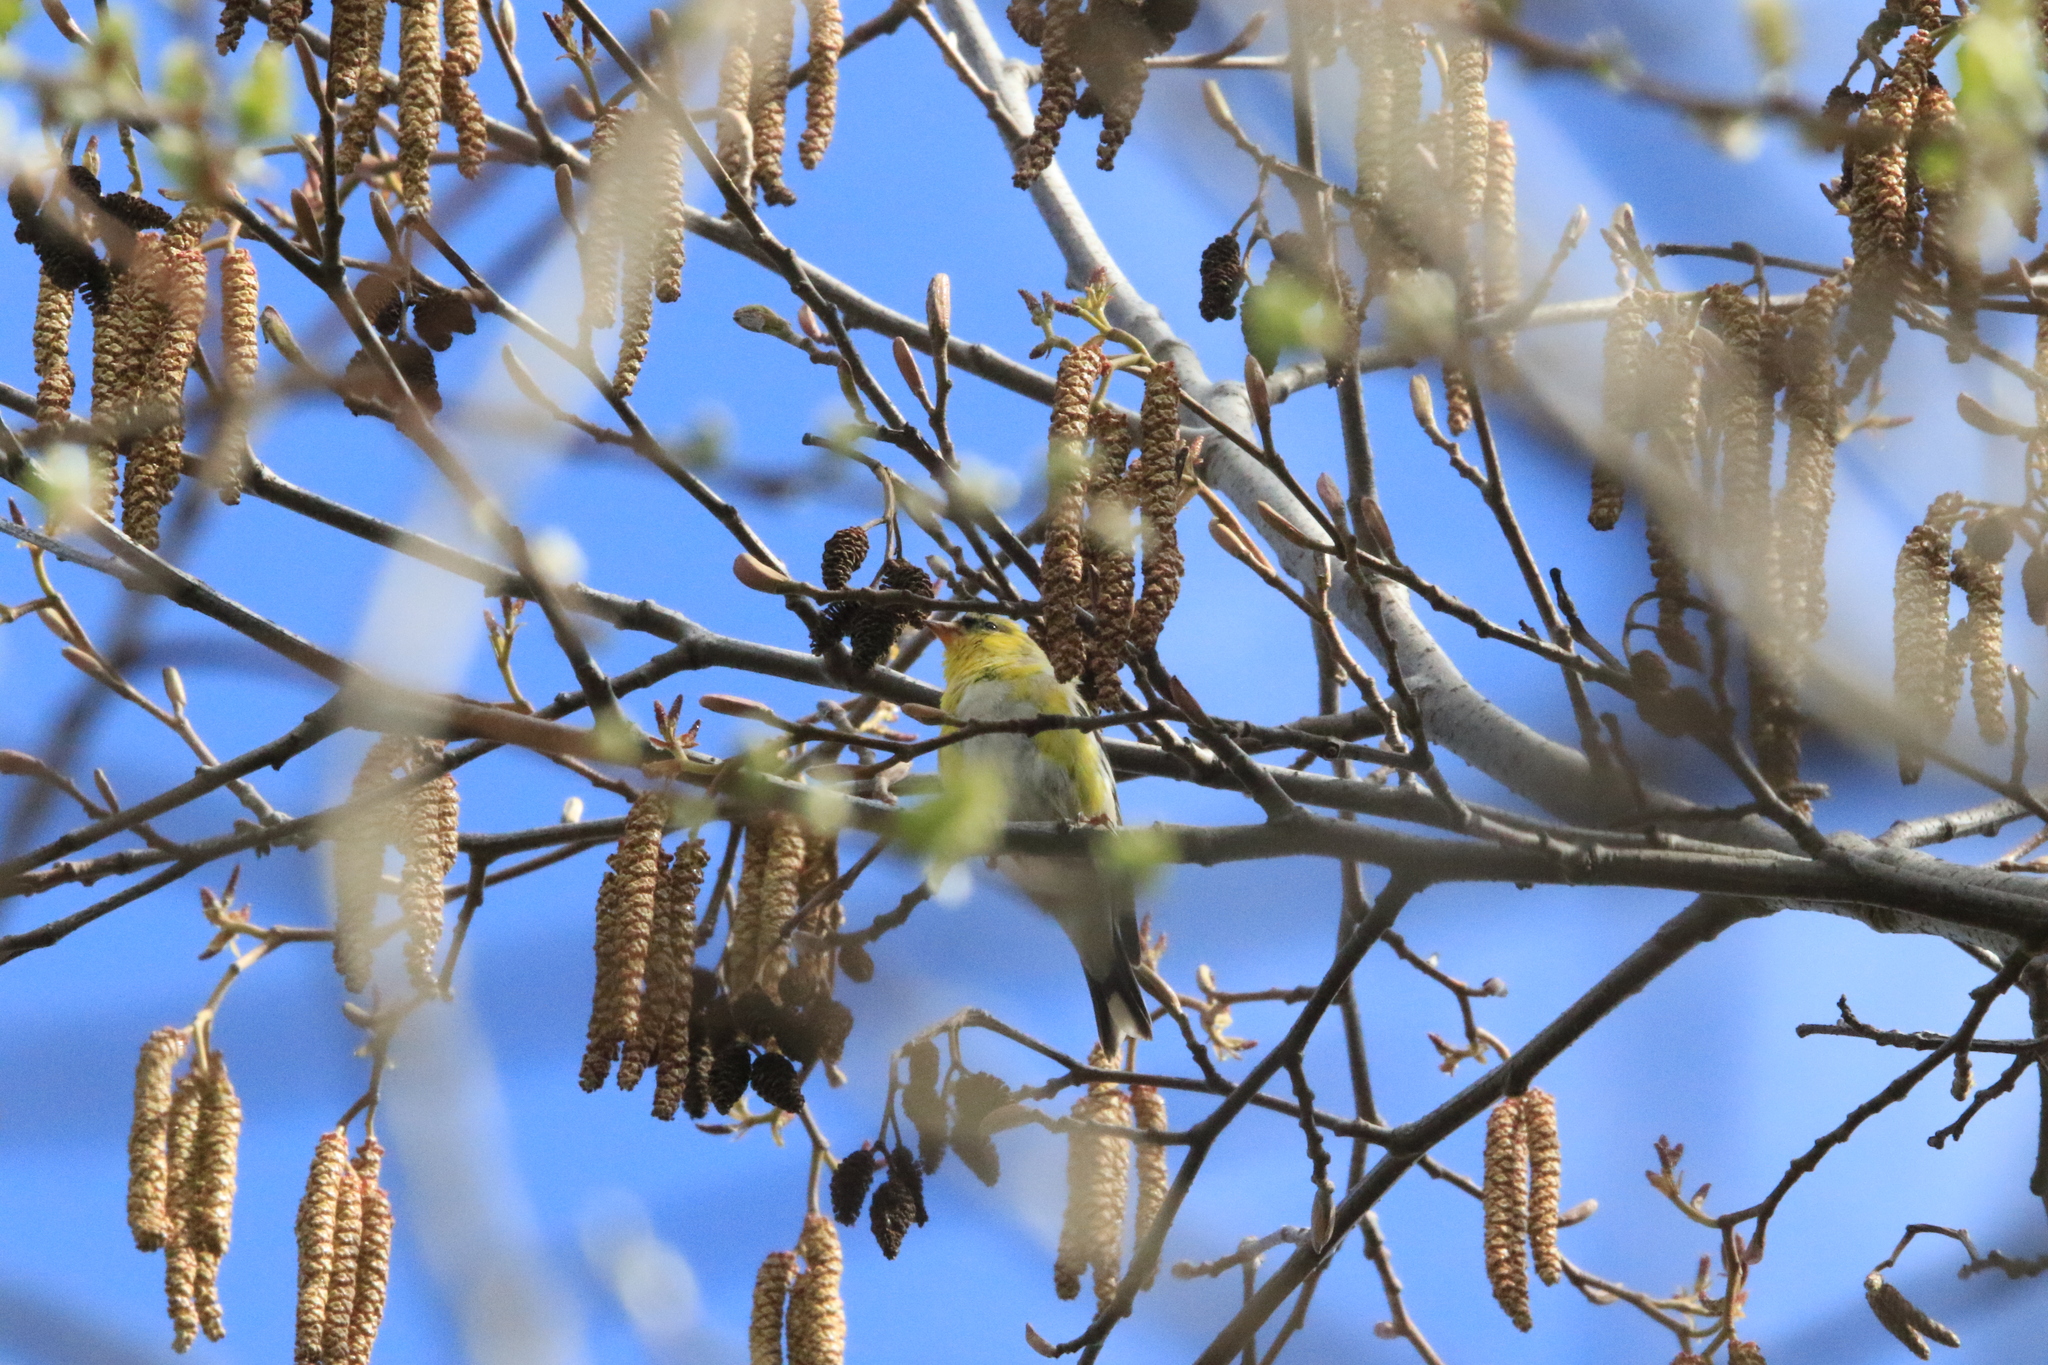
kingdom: Animalia
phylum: Chordata
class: Aves
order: Passeriformes
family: Fringillidae
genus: Spinus
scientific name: Spinus tristis
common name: American goldfinch
